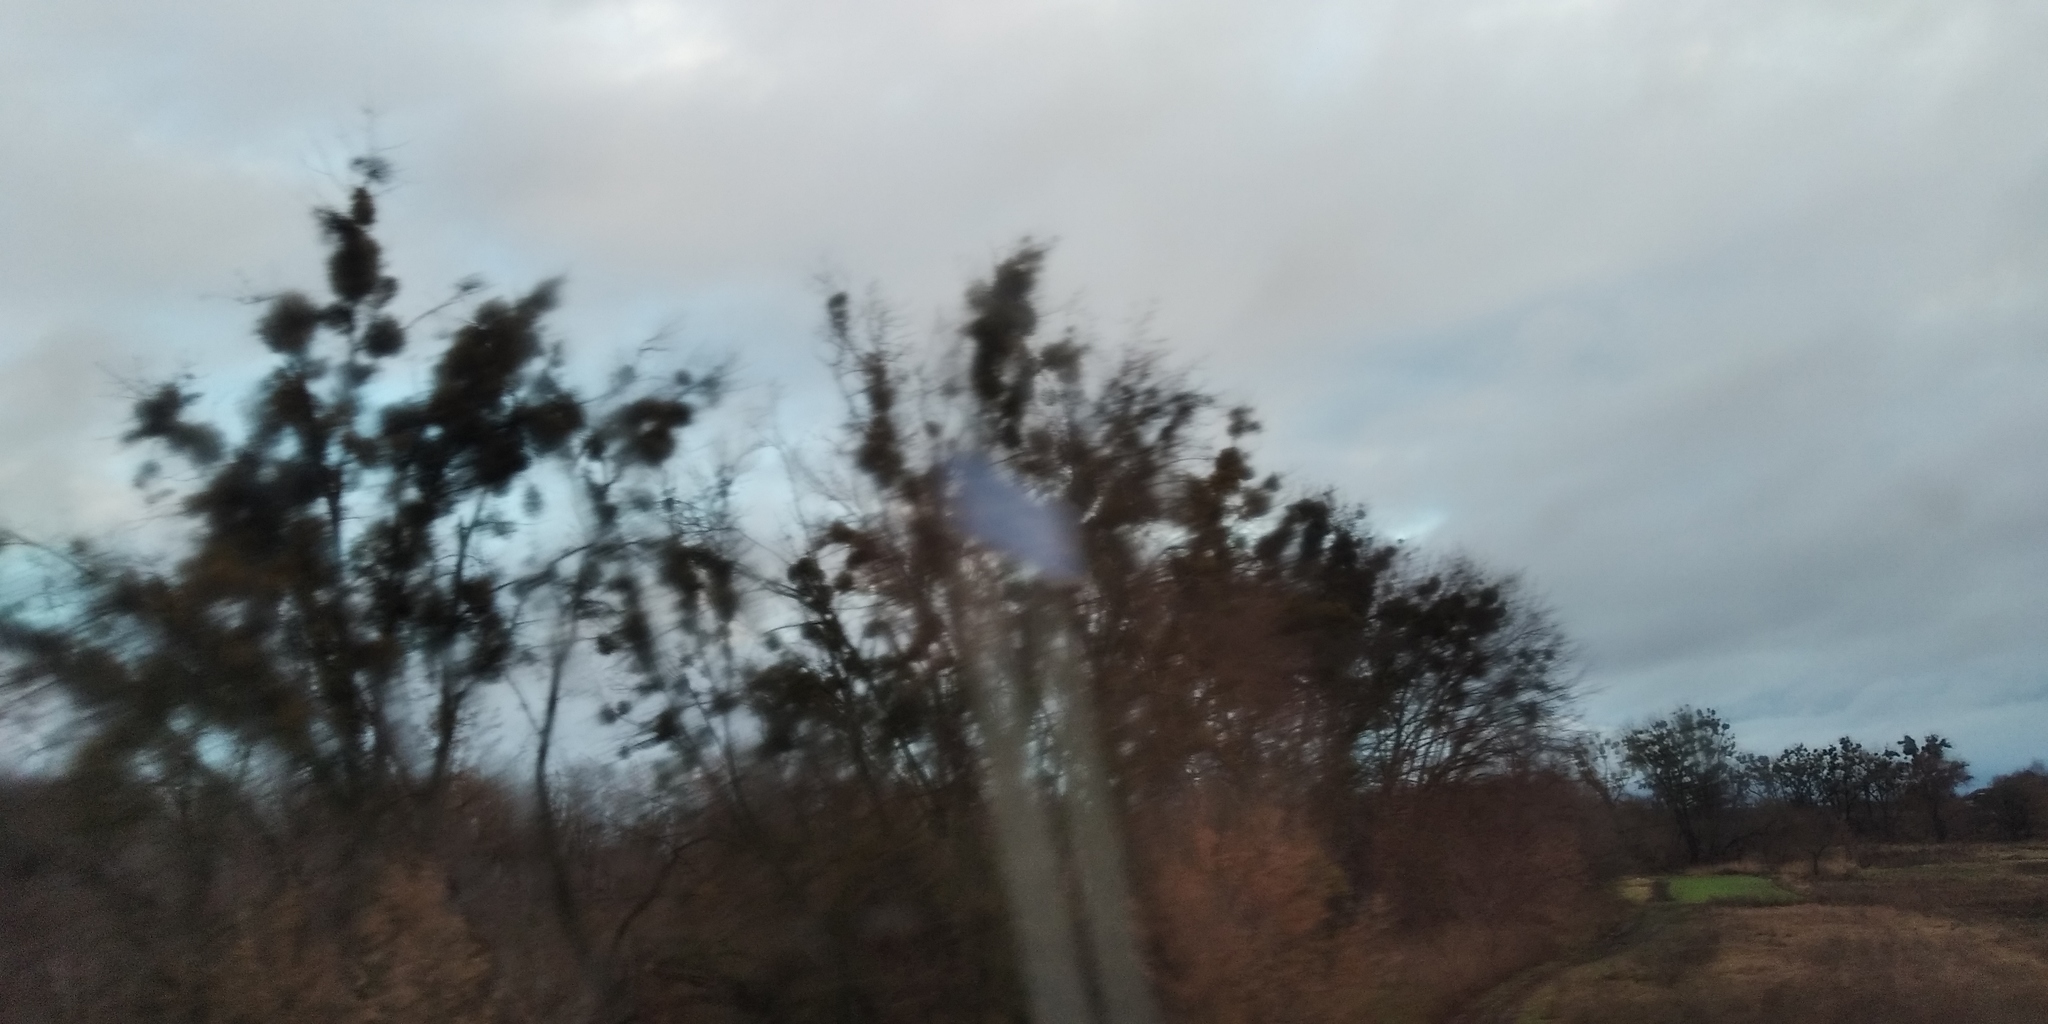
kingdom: Plantae
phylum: Tracheophyta
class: Magnoliopsida
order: Santalales
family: Viscaceae
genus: Viscum
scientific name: Viscum album
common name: Mistletoe
